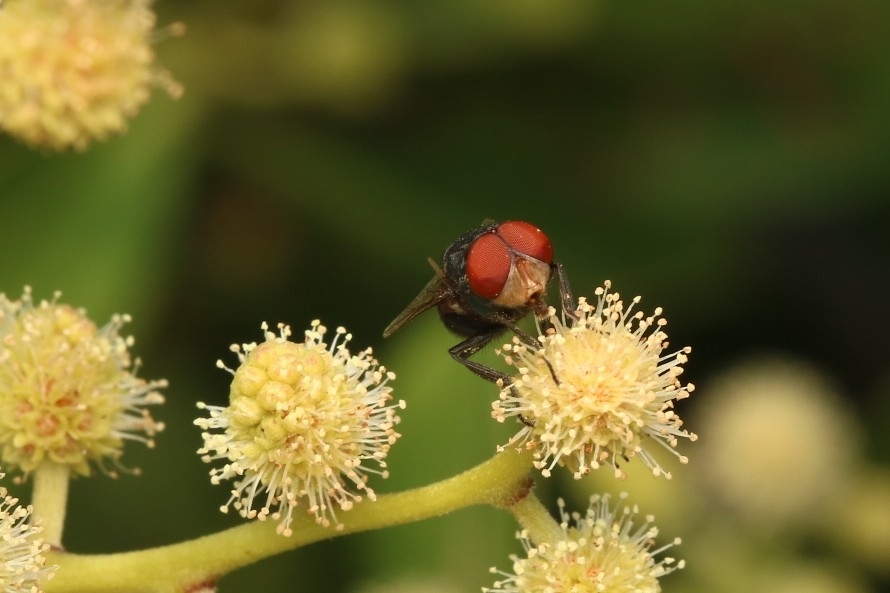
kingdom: Animalia
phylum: Arthropoda
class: Insecta
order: Diptera
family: Calliphoridae
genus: Chrysomya
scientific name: Chrysomya megacephala
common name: Blow fly
